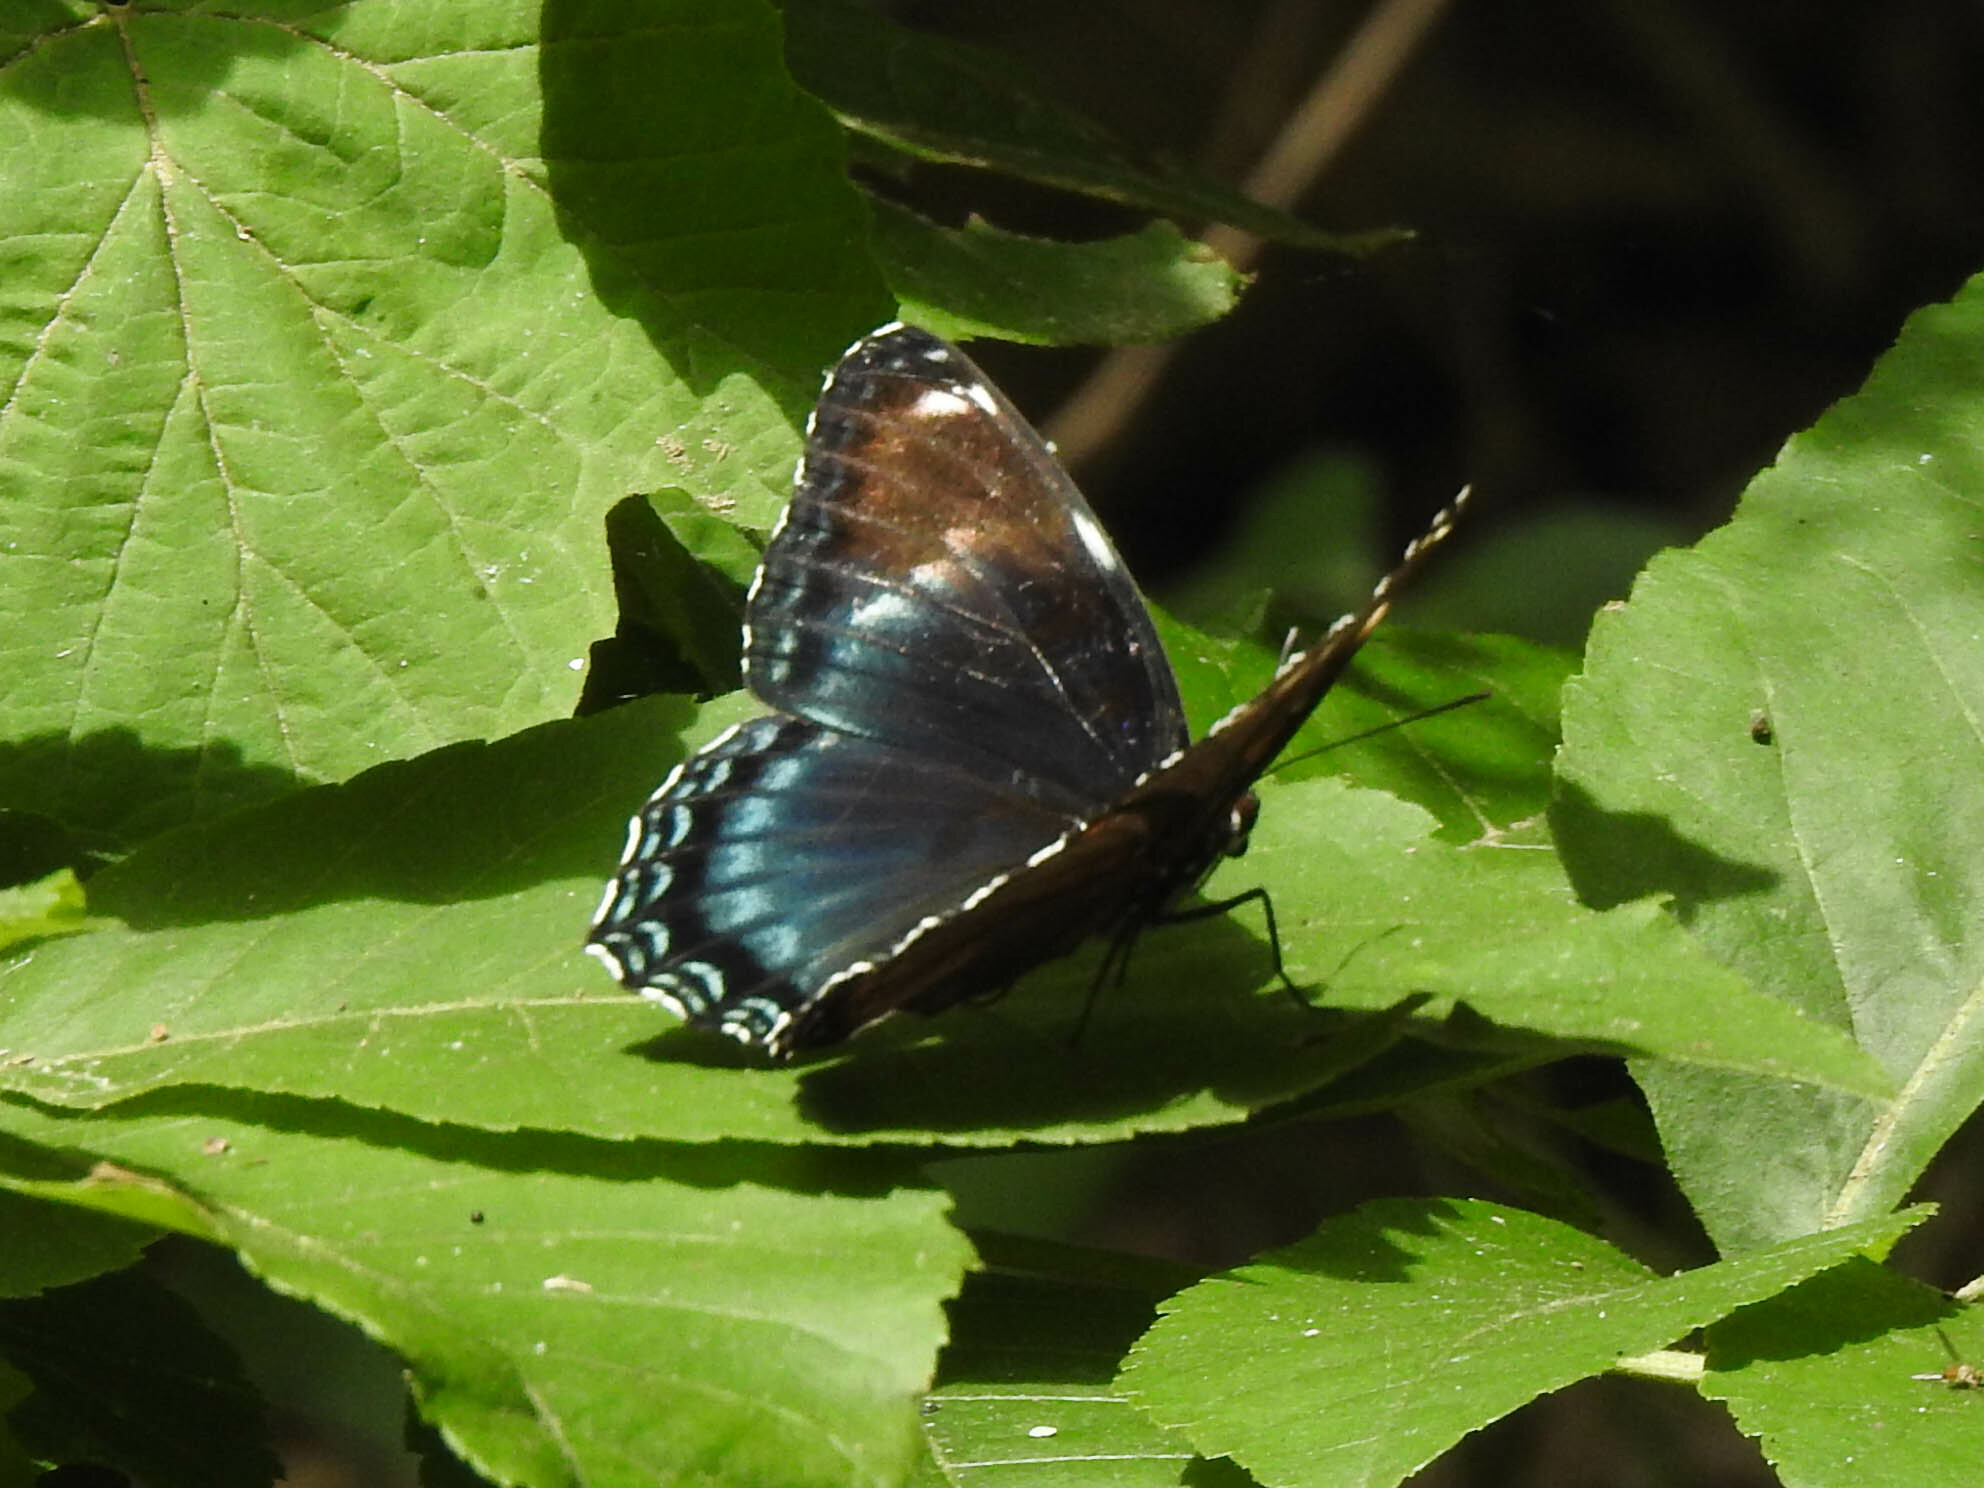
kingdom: Animalia
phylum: Arthropoda
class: Insecta
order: Lepidoptera
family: Nymphalidae
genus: Limenitis
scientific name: Limenitis arthemis
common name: Red-spotted admiral
